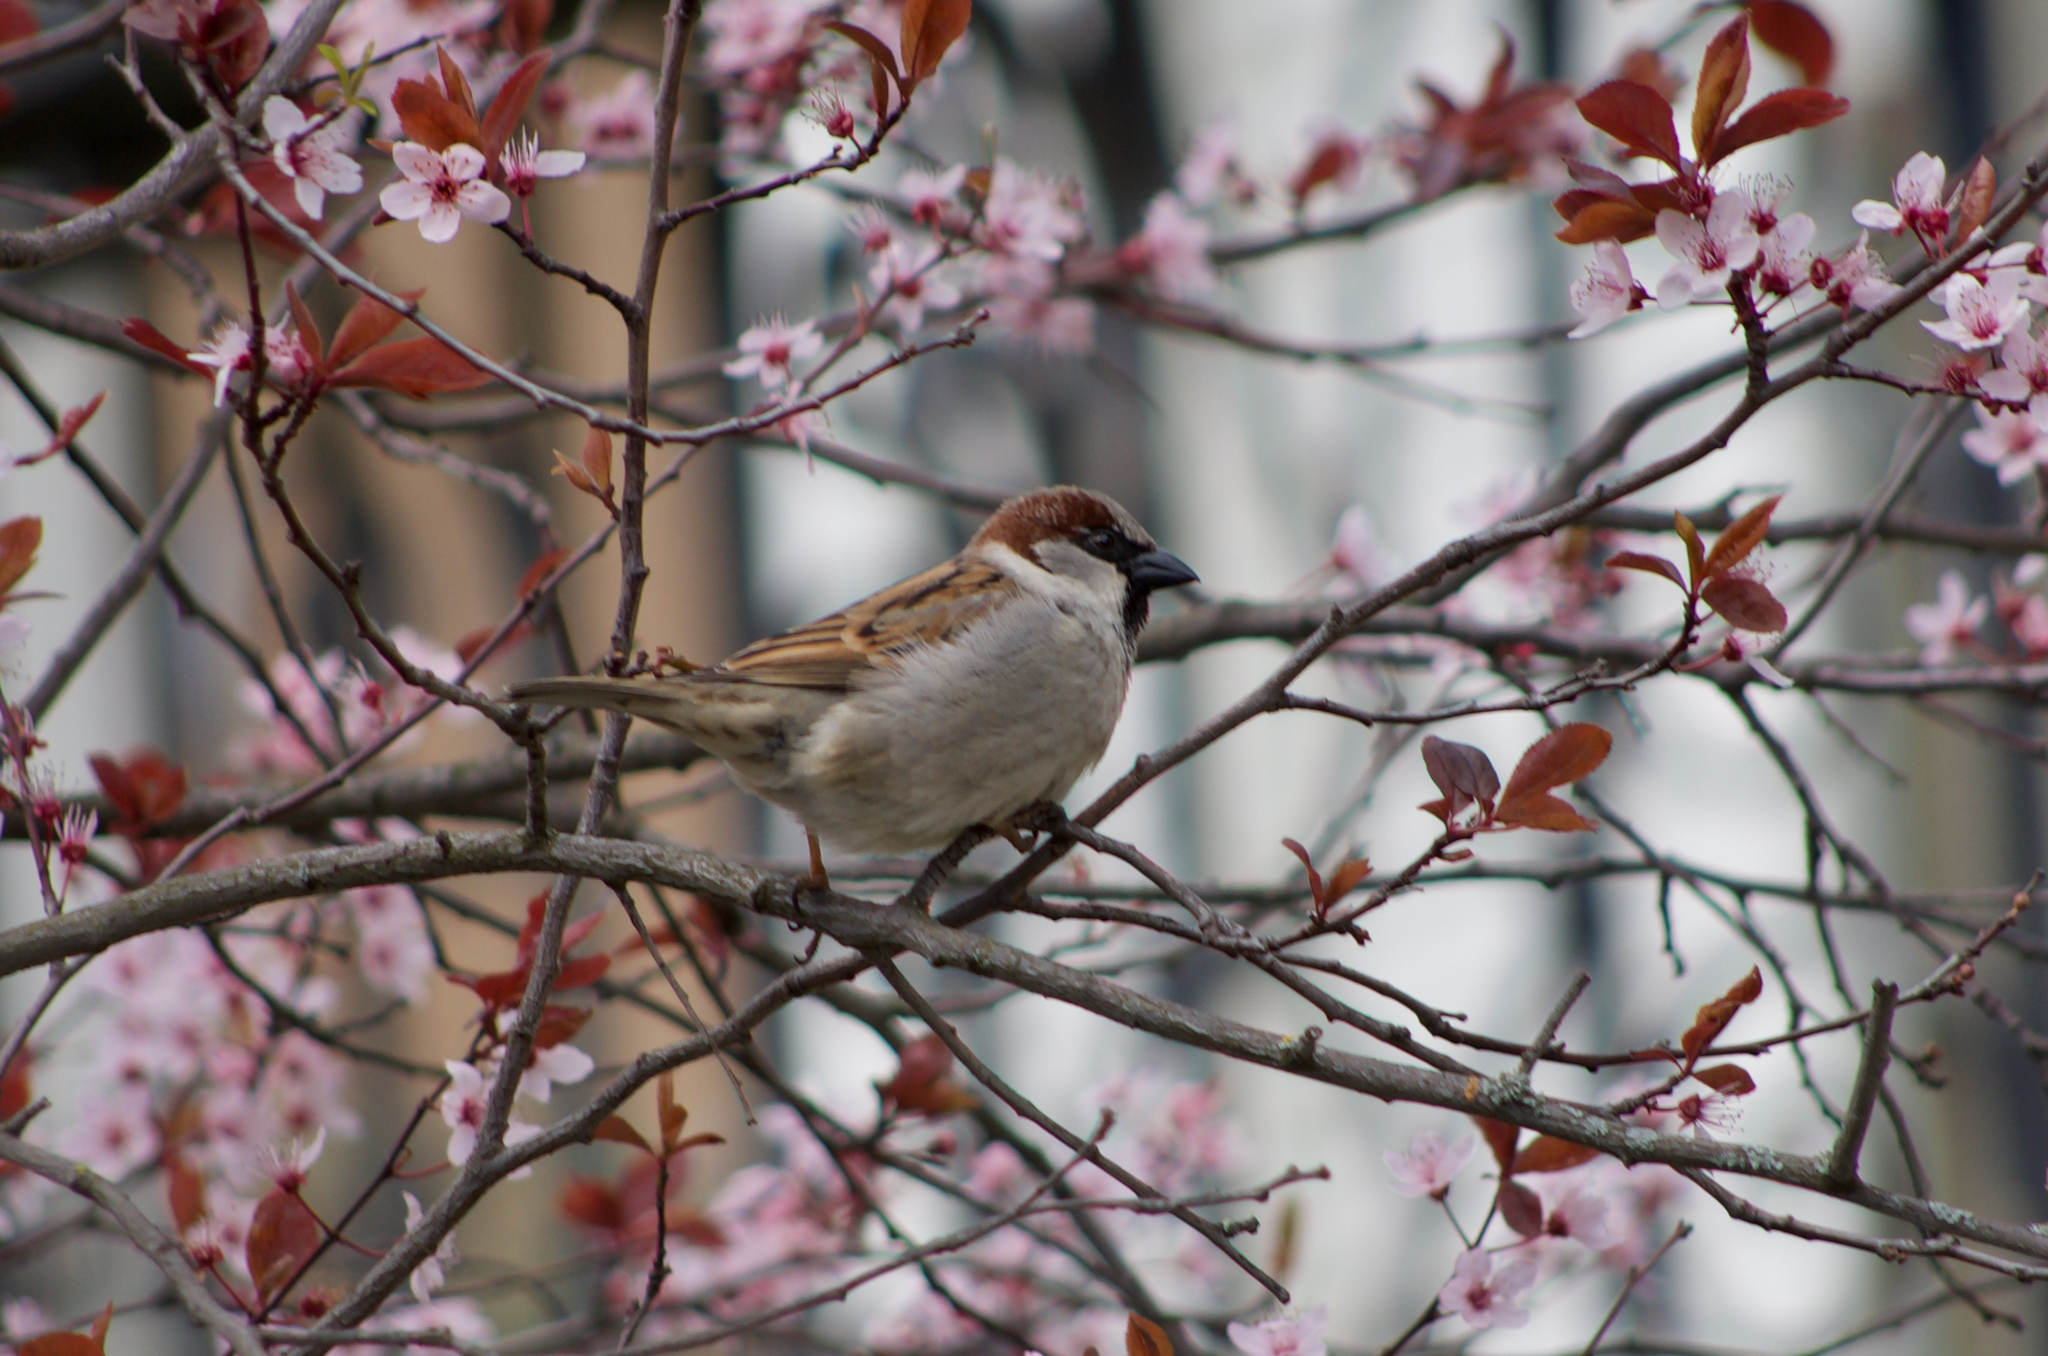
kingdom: Animalia
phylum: Chordata
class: Aves
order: Passeriformes
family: Passeridae
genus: Passer
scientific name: Passer domesticus
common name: House sparrow
